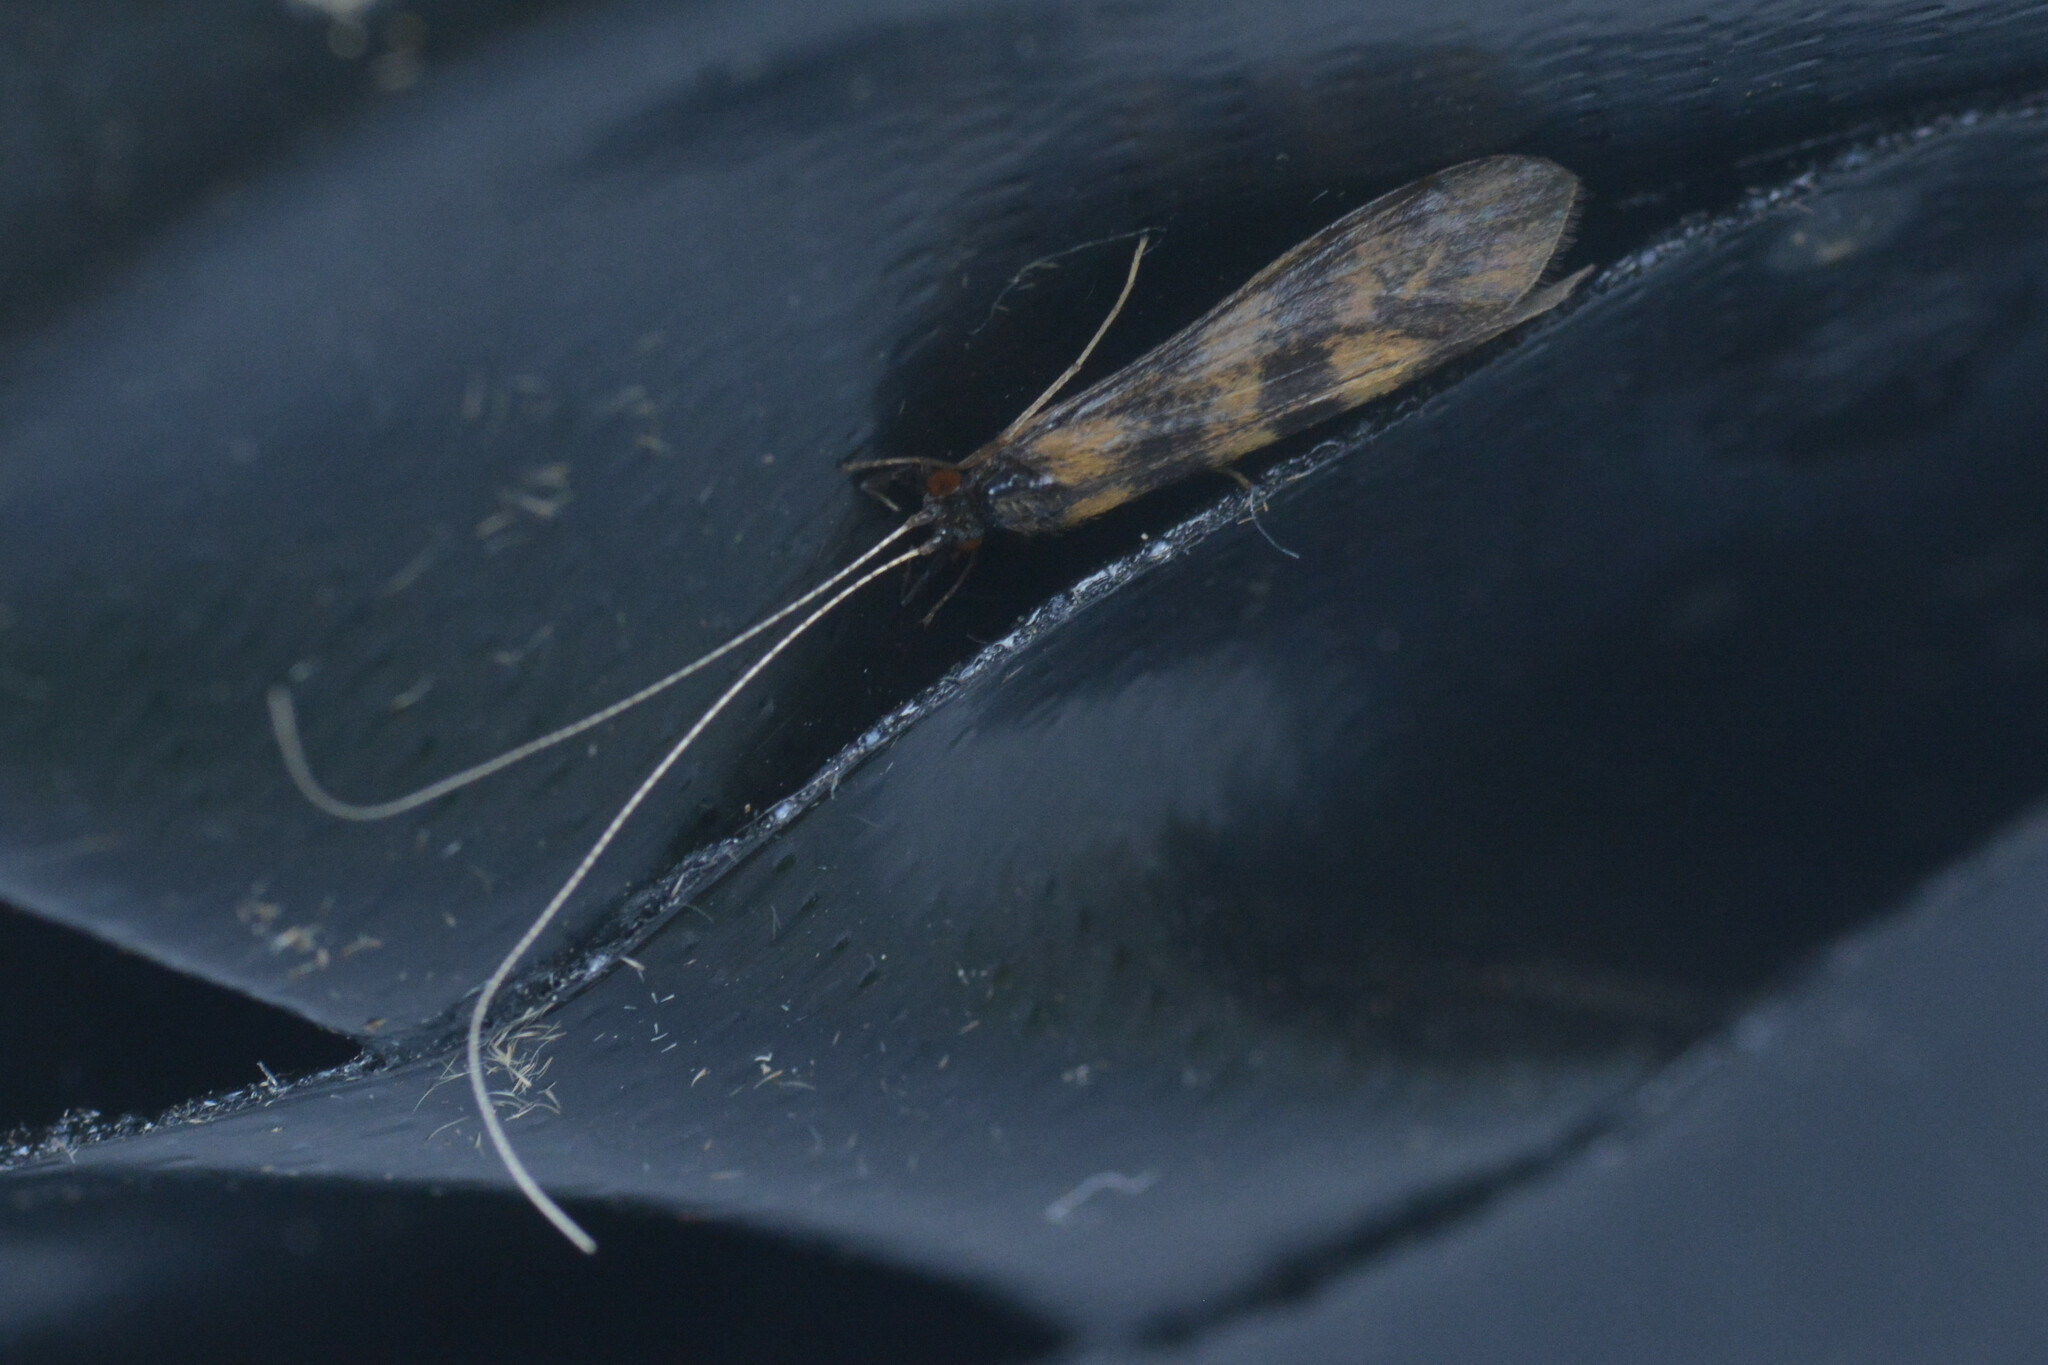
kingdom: Animalia
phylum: Arthropoda
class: Insecta
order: Trichoptera
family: Leptoceridae
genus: Mystacides
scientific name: Mystacides longicornis
